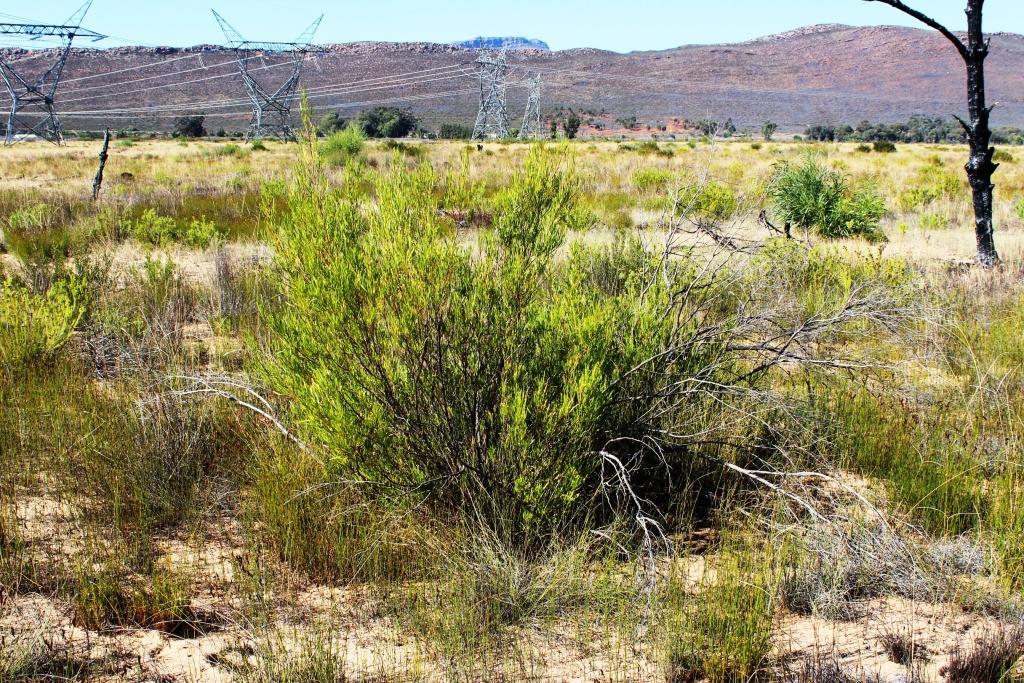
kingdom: Plantae
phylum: Tracheophyta
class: Magnoliopsida
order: Proteales
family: Proteaceae
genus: Leucadendron
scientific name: Leucadendron salignum
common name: Common sunshine conebush
